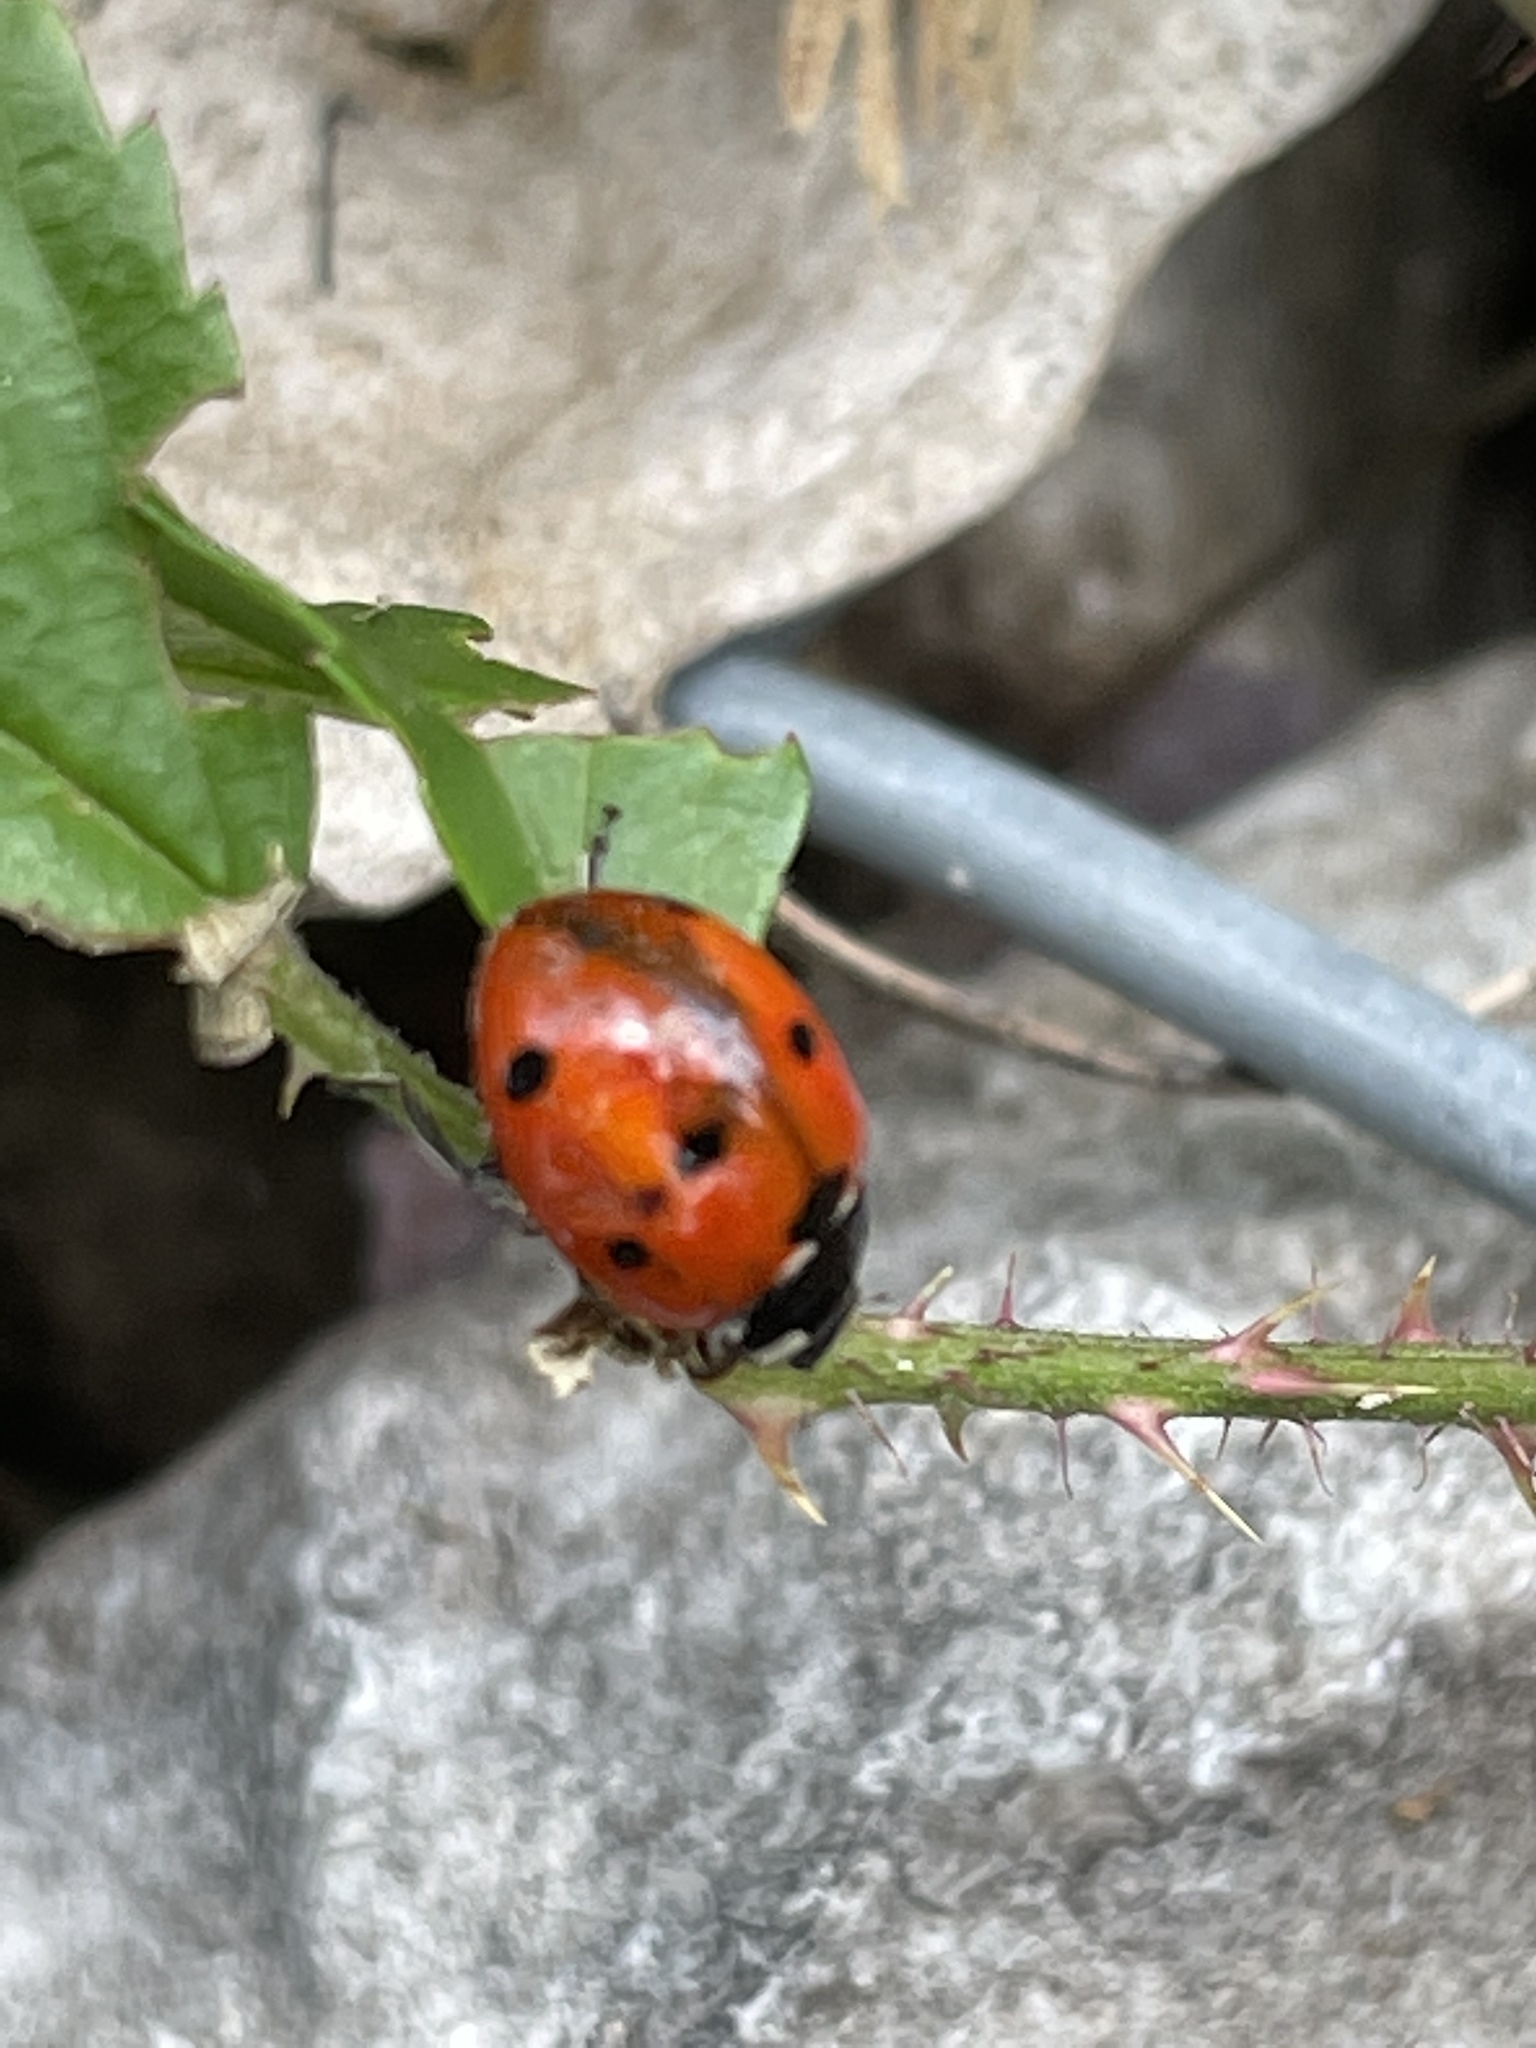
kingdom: Animalia
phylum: Arthropoda
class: Insecta
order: Coleoptera
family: Coccinellidae
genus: Coccinella
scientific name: Coccinella septempunctata
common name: Sevenspotted lady beetle
